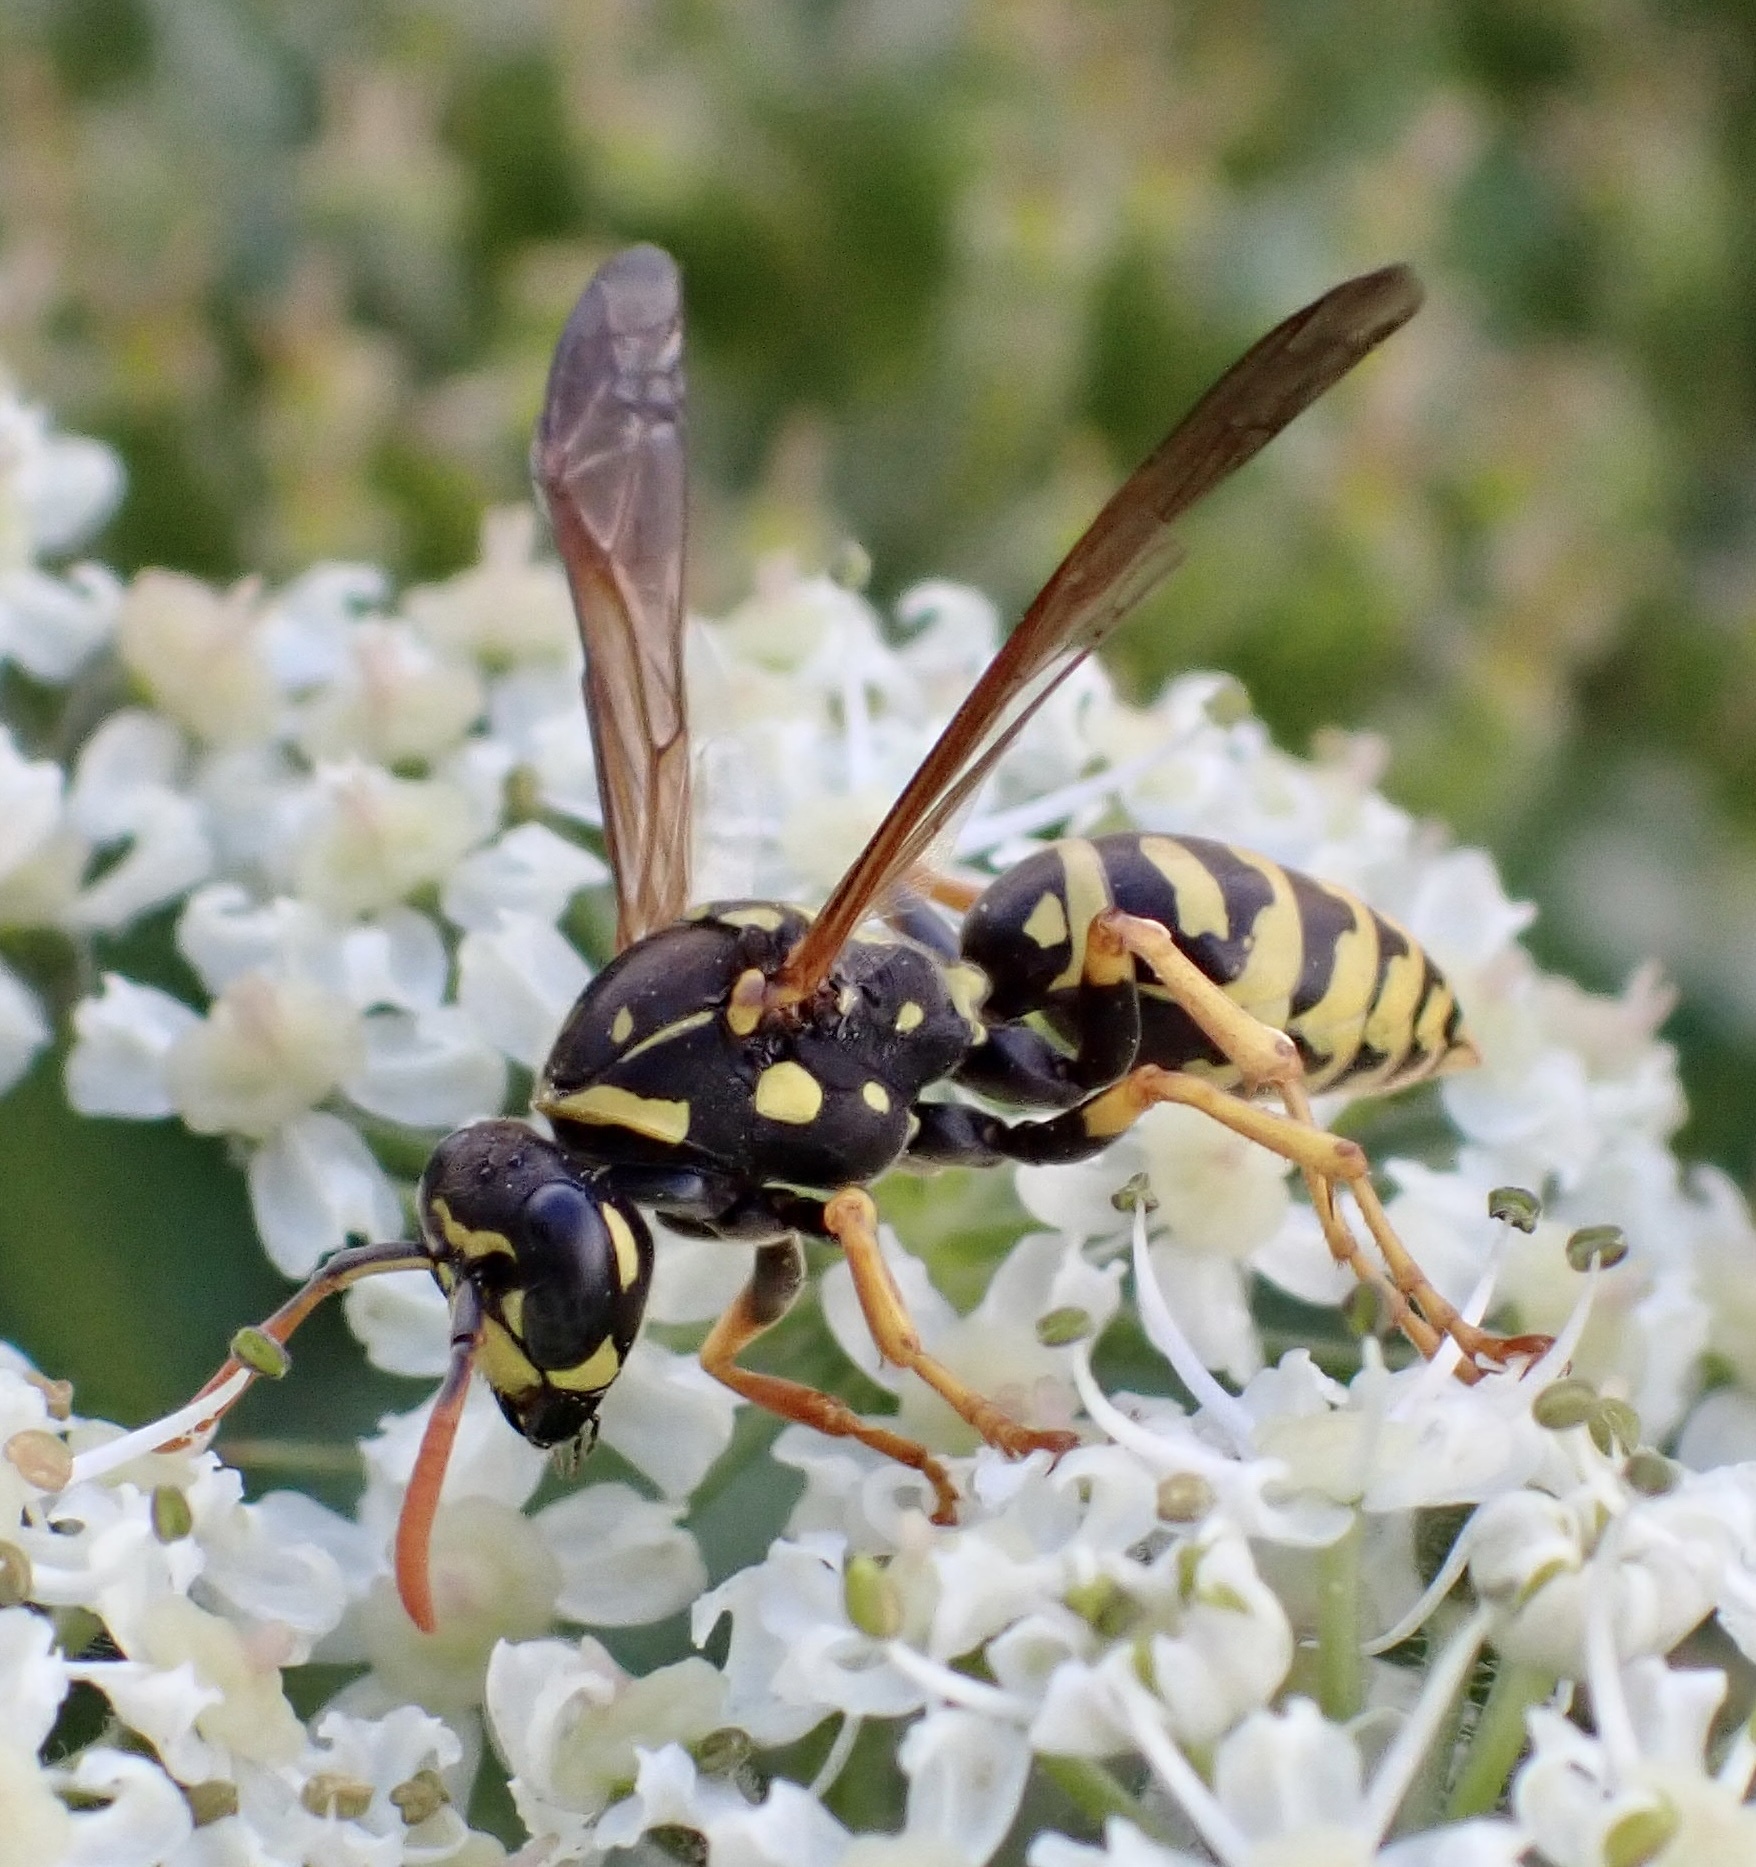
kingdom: Animalia
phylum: Arthropoda
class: Insecta
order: Hymenoptera
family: Eumenidae
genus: Polistes
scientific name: Polistes dominula
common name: Paper wasp
